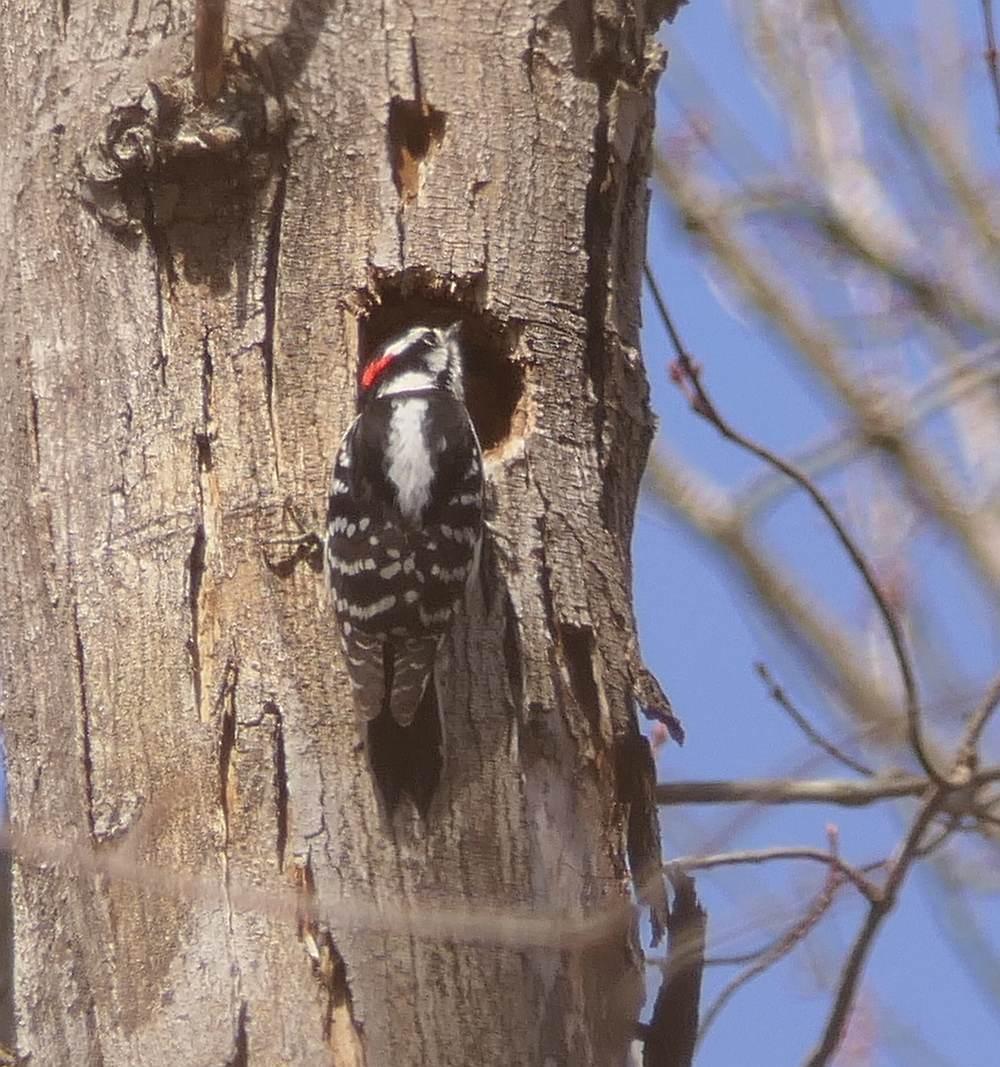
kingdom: Animalia
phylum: Chordata
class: Aves
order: Piciformes
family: Picidae
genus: Dryobates
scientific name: Dryobates pubescens
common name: Downy woodpecker
